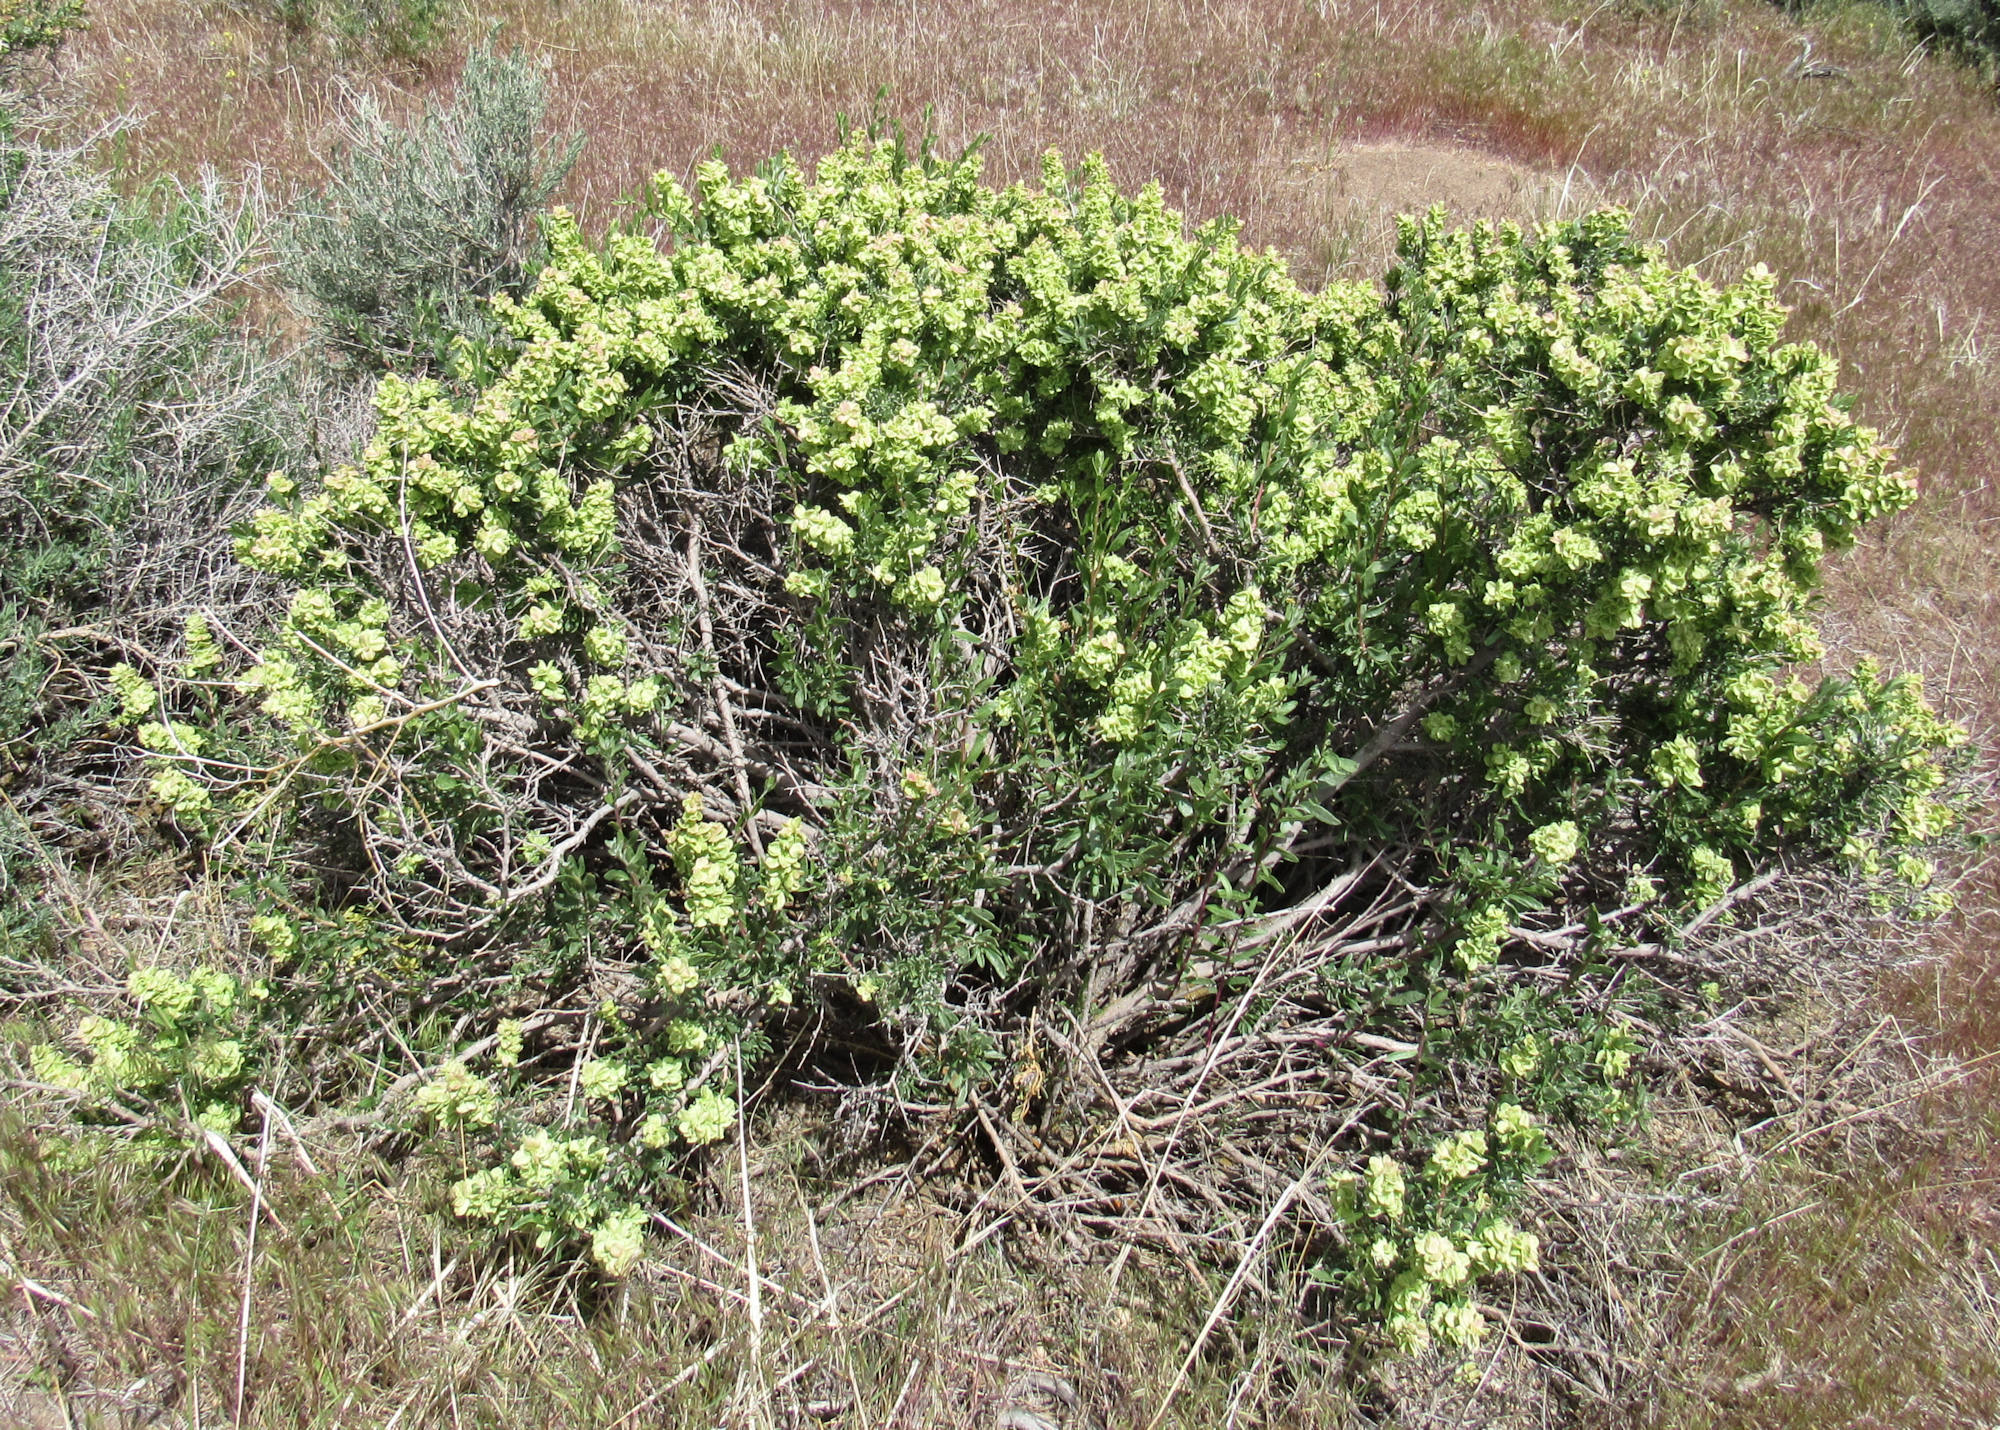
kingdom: Plantae
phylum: Tracheophyta
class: Magnoliopsida
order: Caryophyllales
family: Amaranthaceae
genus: Grayia
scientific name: Grayia spinosa
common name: Spiny hopsage
